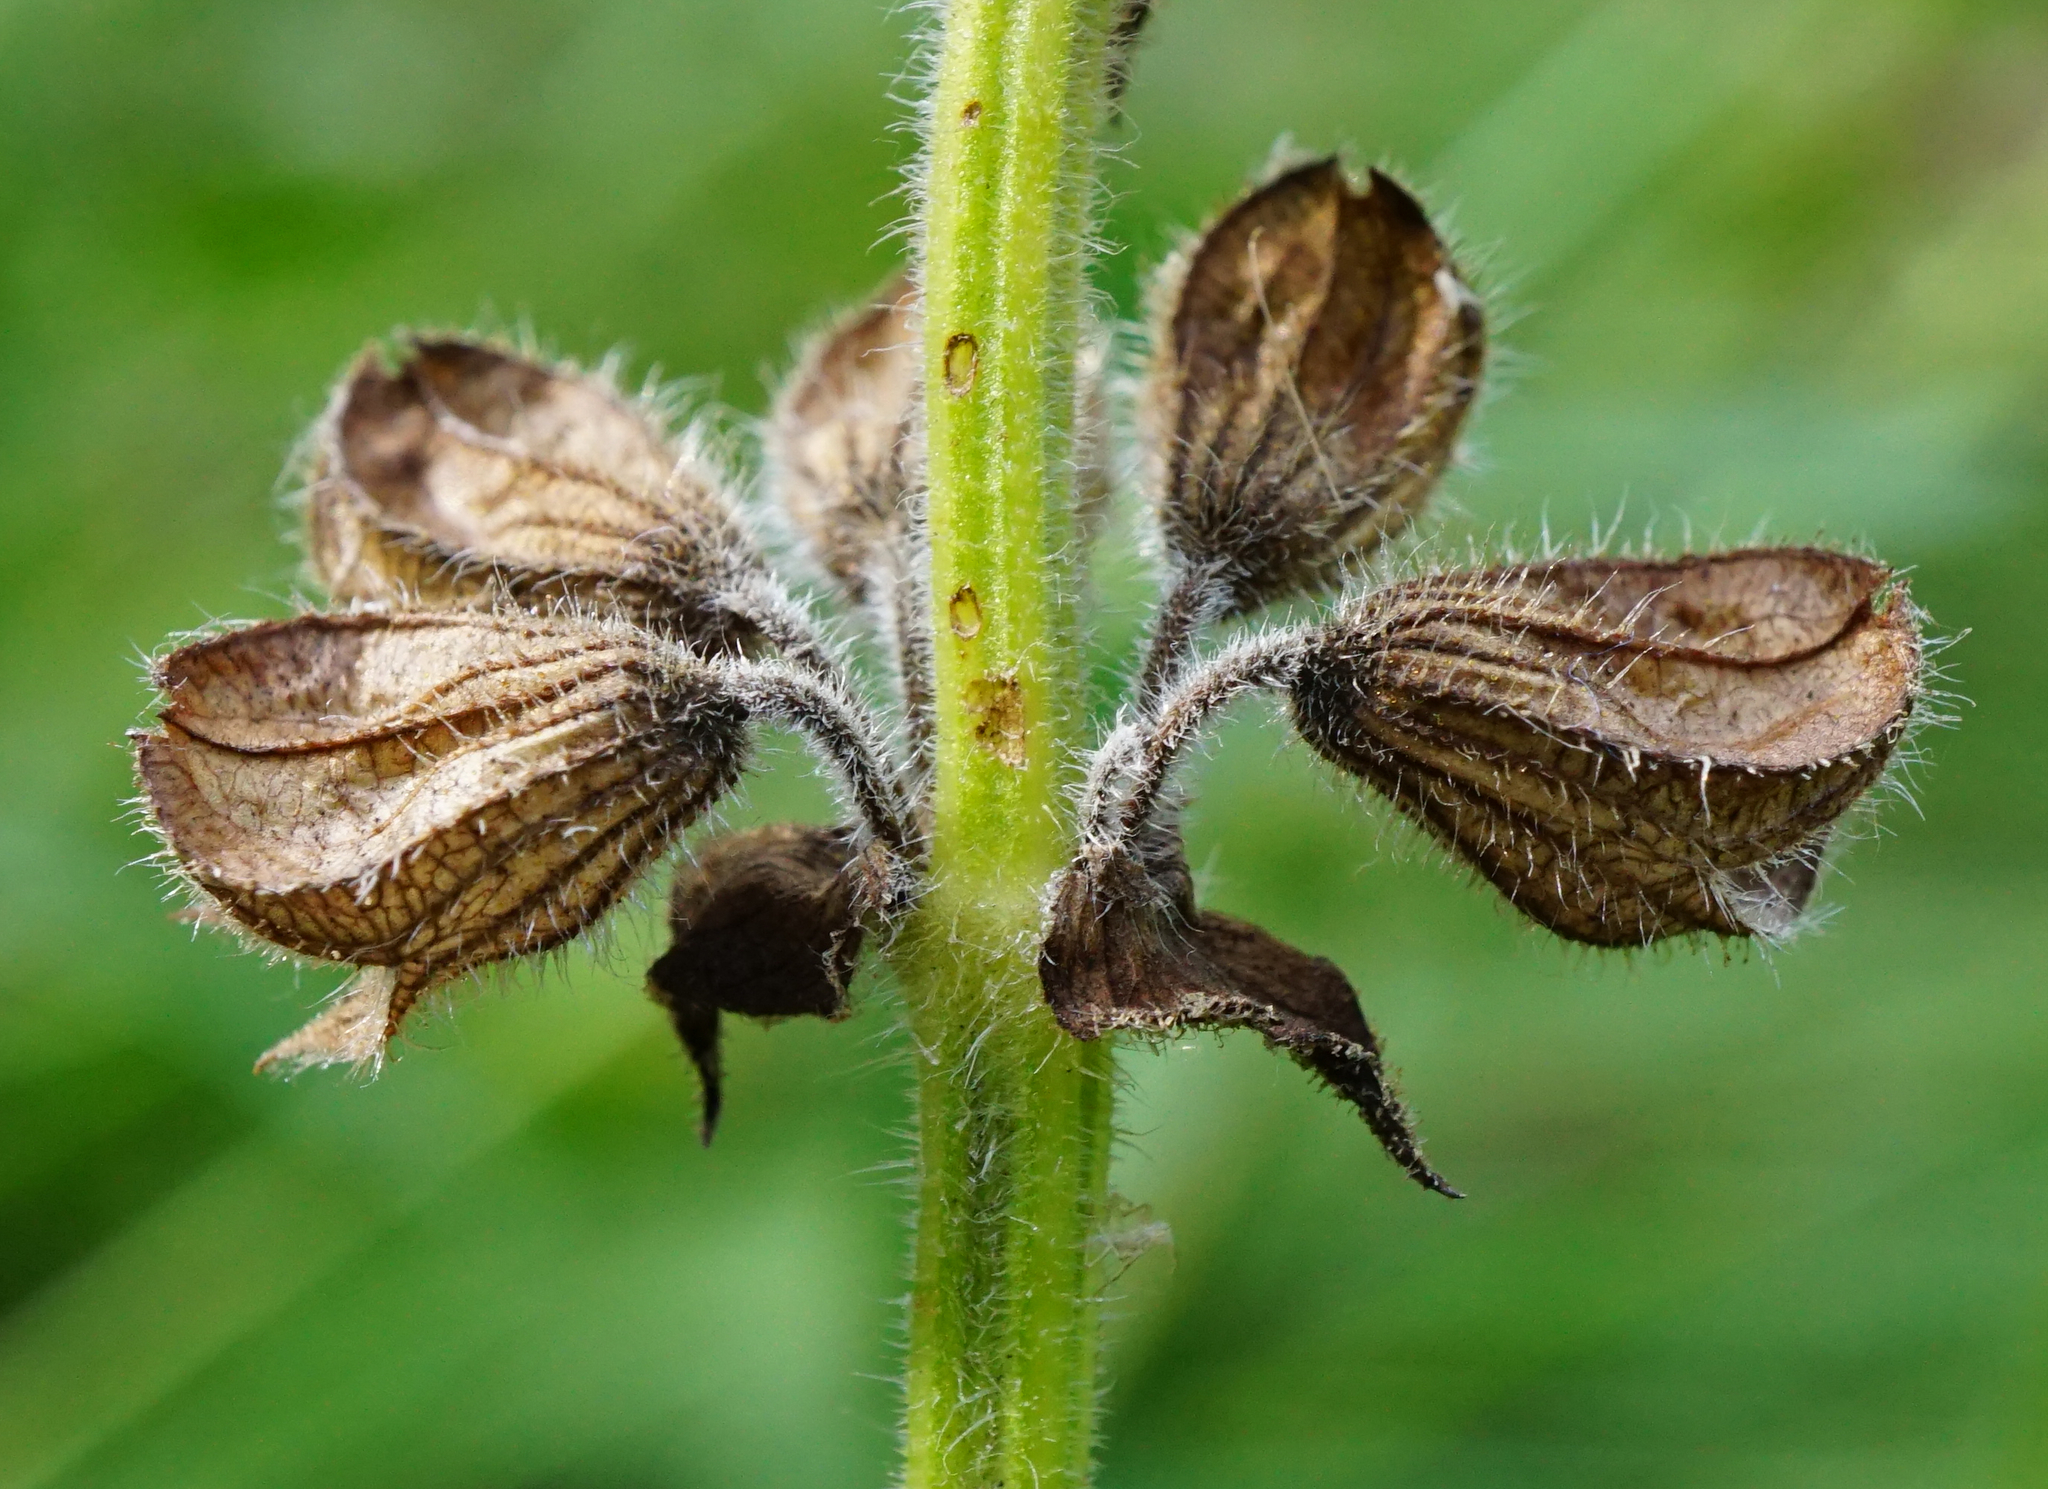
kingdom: Plantae
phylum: Tracheophyta
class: Magnoliopsida
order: Lamiales
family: Lamiaceae
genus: Salvia
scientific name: Salvia pratensis
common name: Meadow sage
